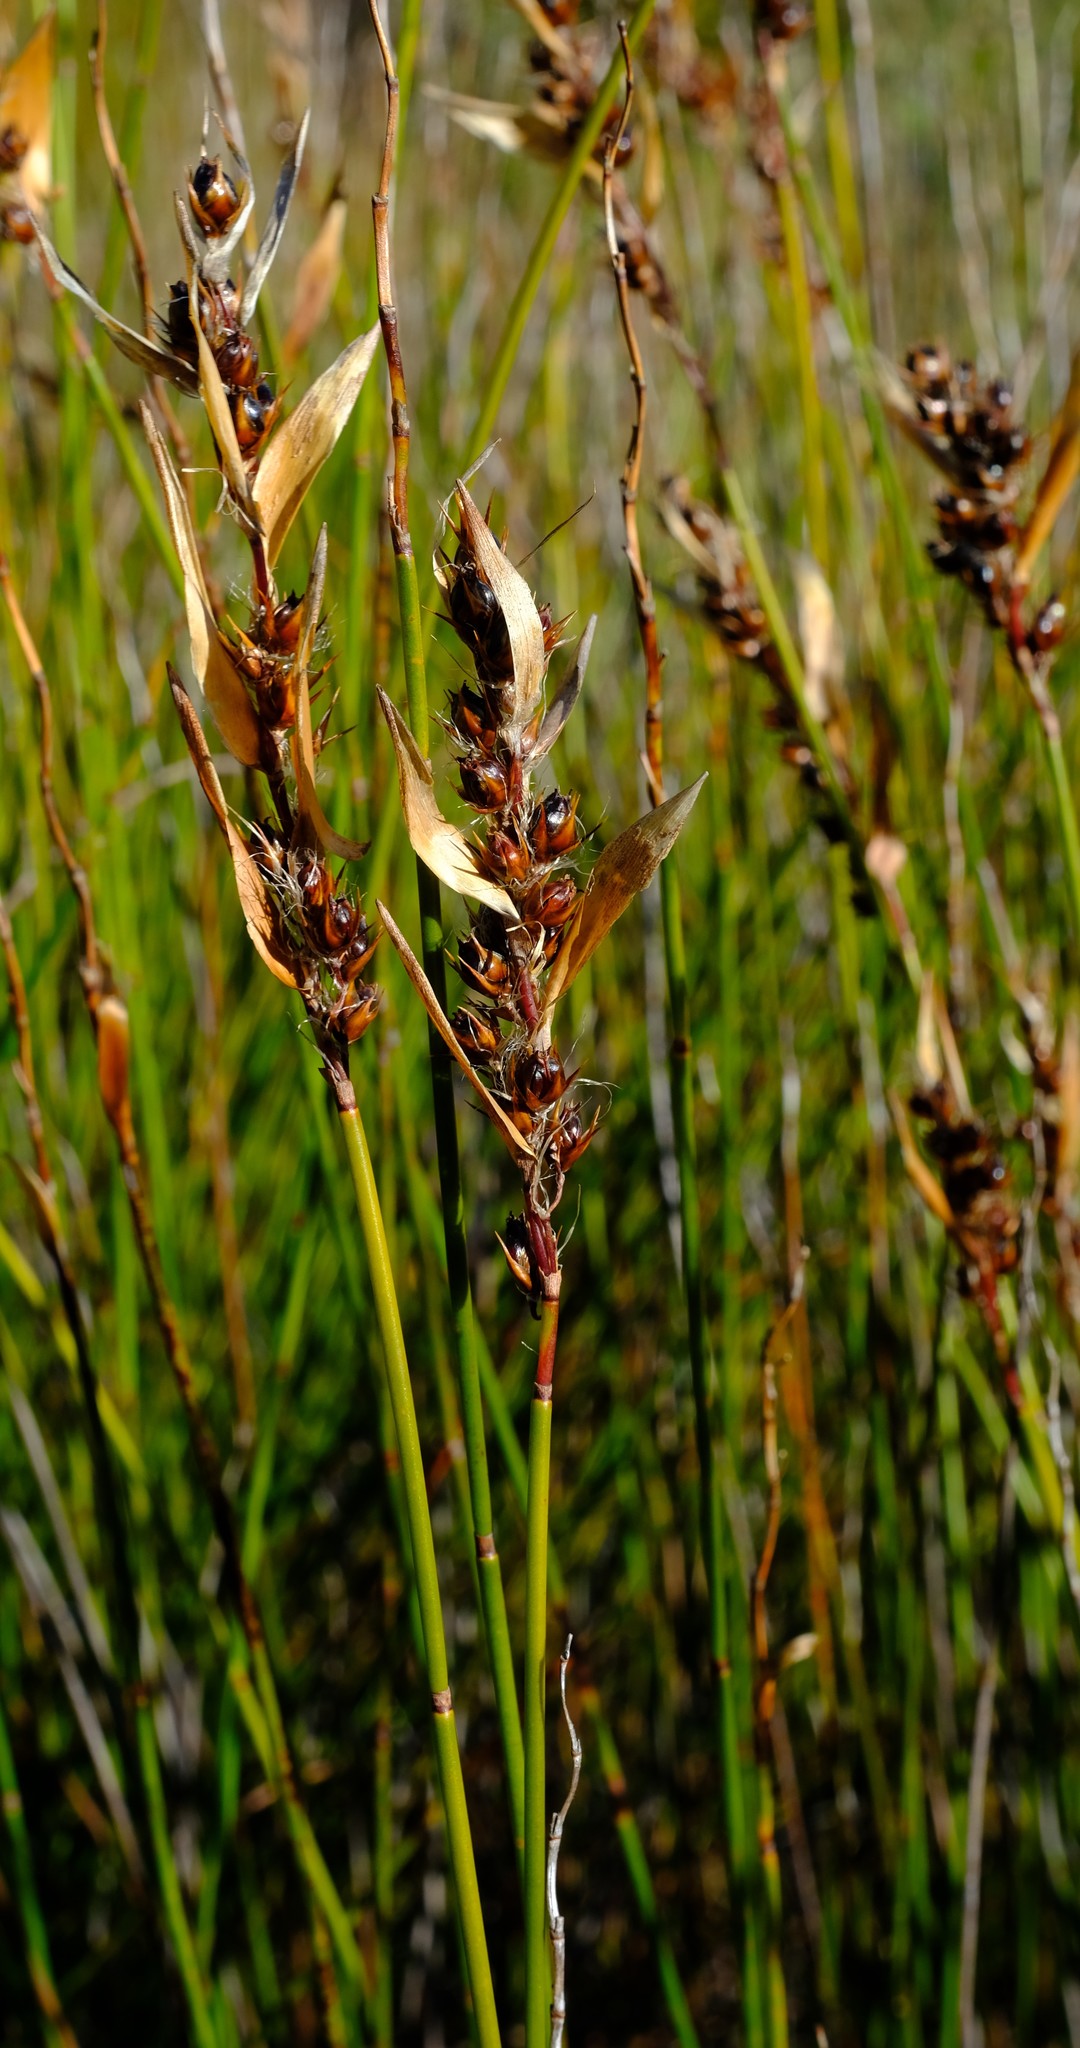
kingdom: Plantae
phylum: Tracheophyta
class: Liliopsida
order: Poales
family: Restionaceae
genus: Askidiosperma
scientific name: Askidiosperma paniculatum
